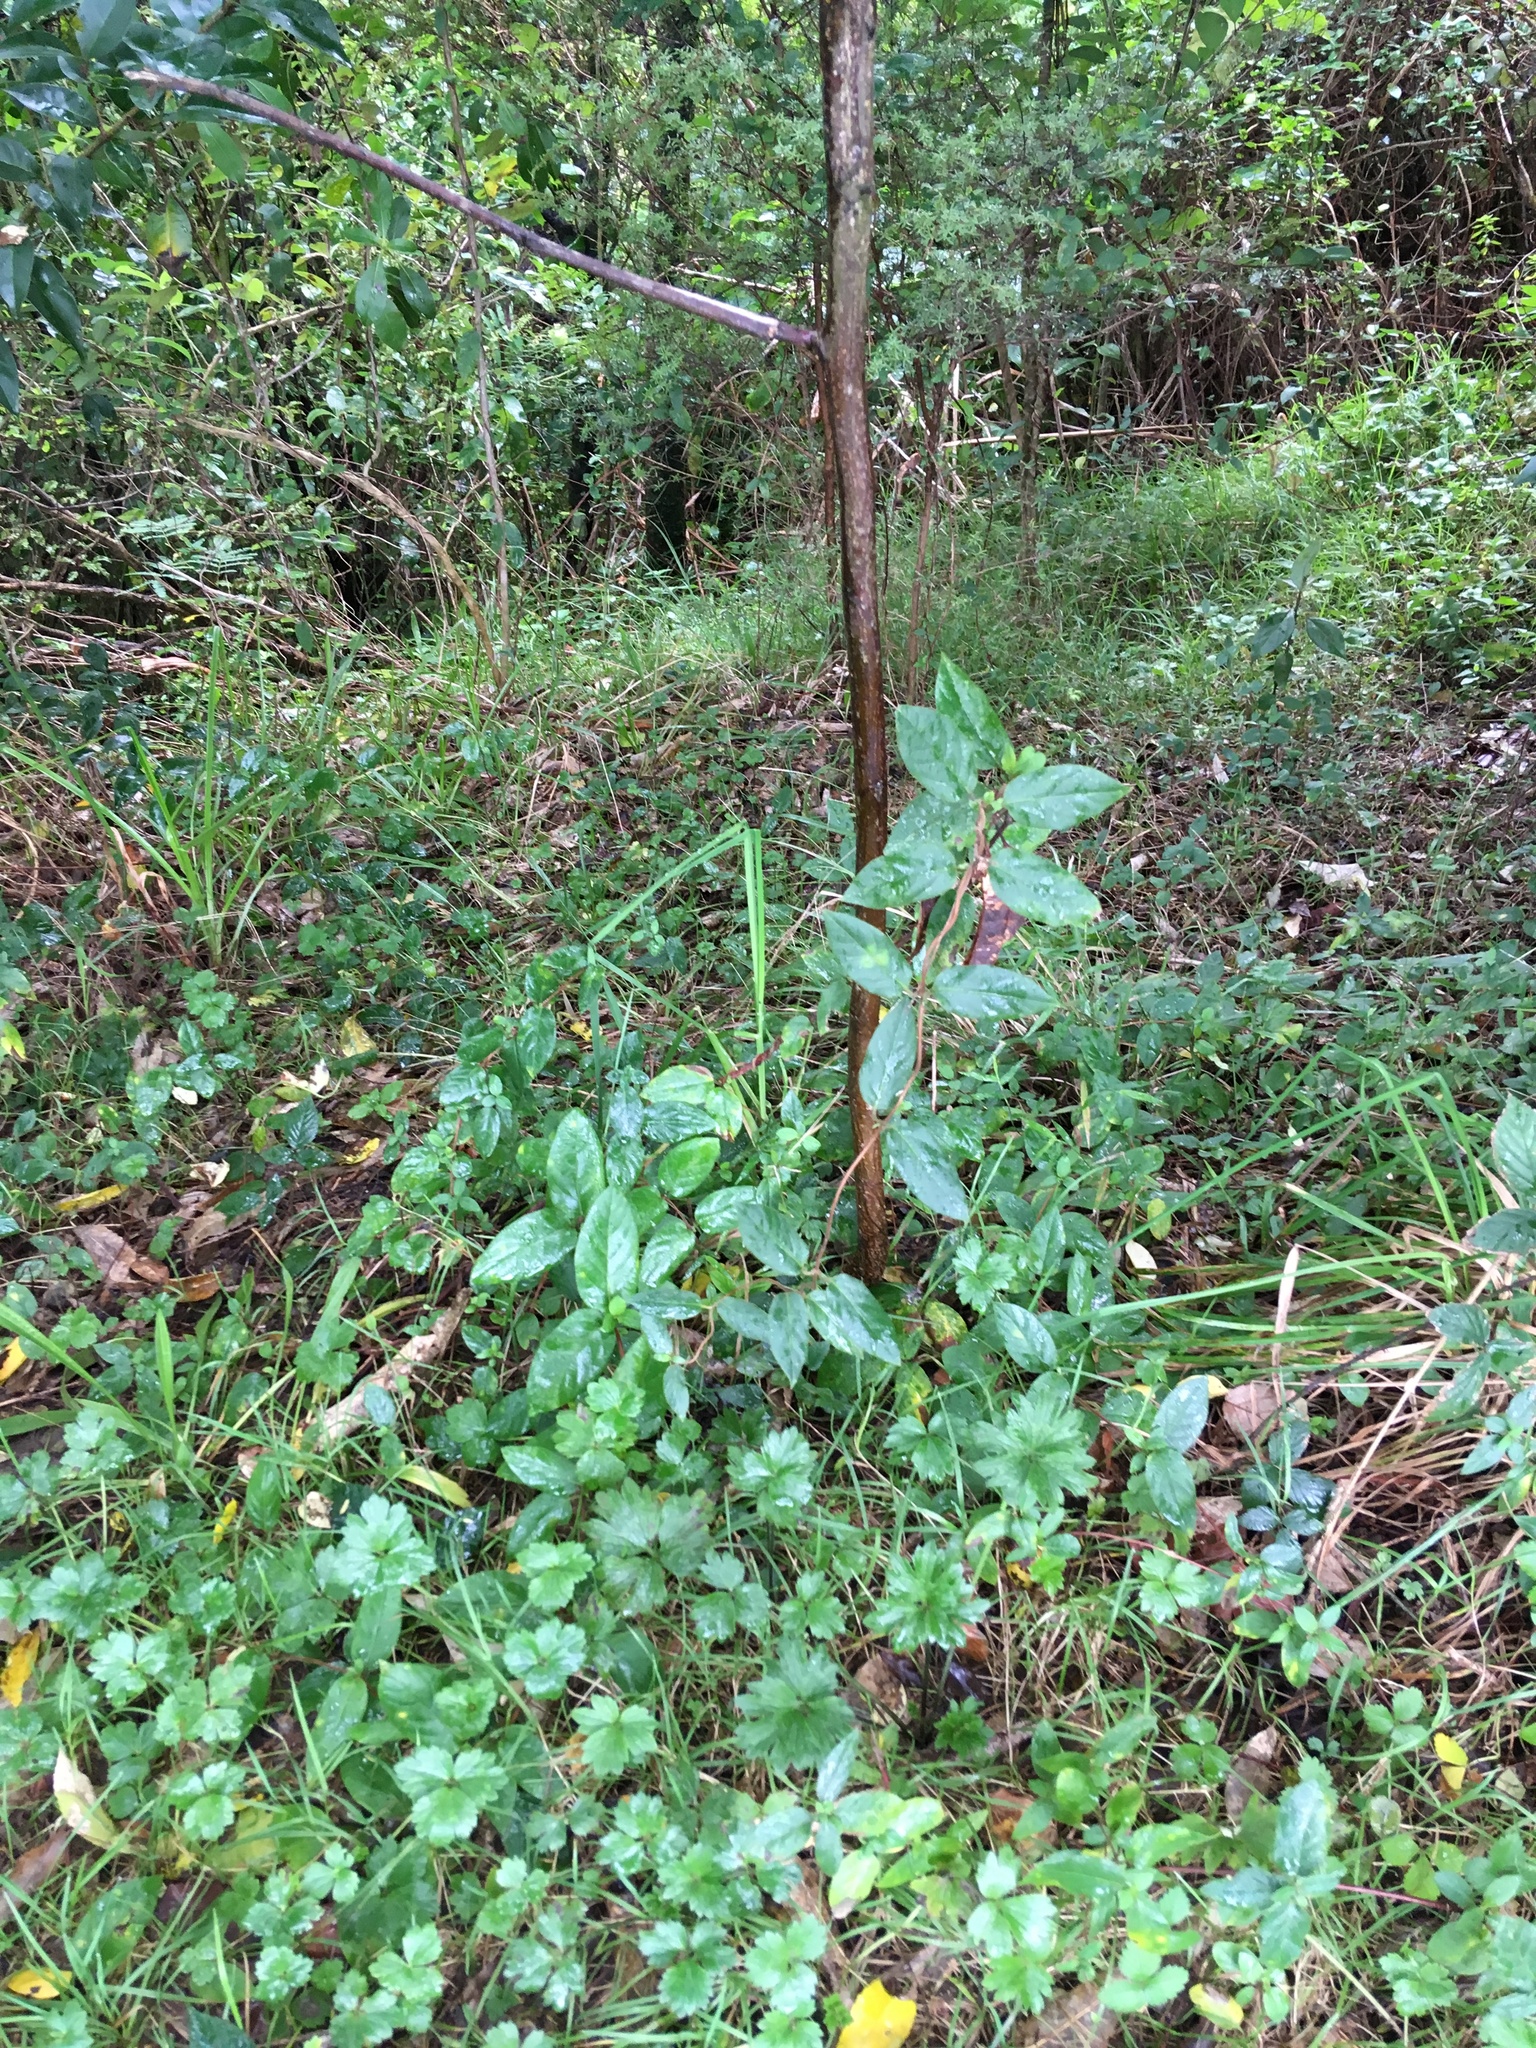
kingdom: Plantae
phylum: Tracheophyta
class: Magnoliopsida
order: Dipsacales
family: Caprifoliaceae
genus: Lonicera
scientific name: Lonicera japonica
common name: Japanese honeysuckle
